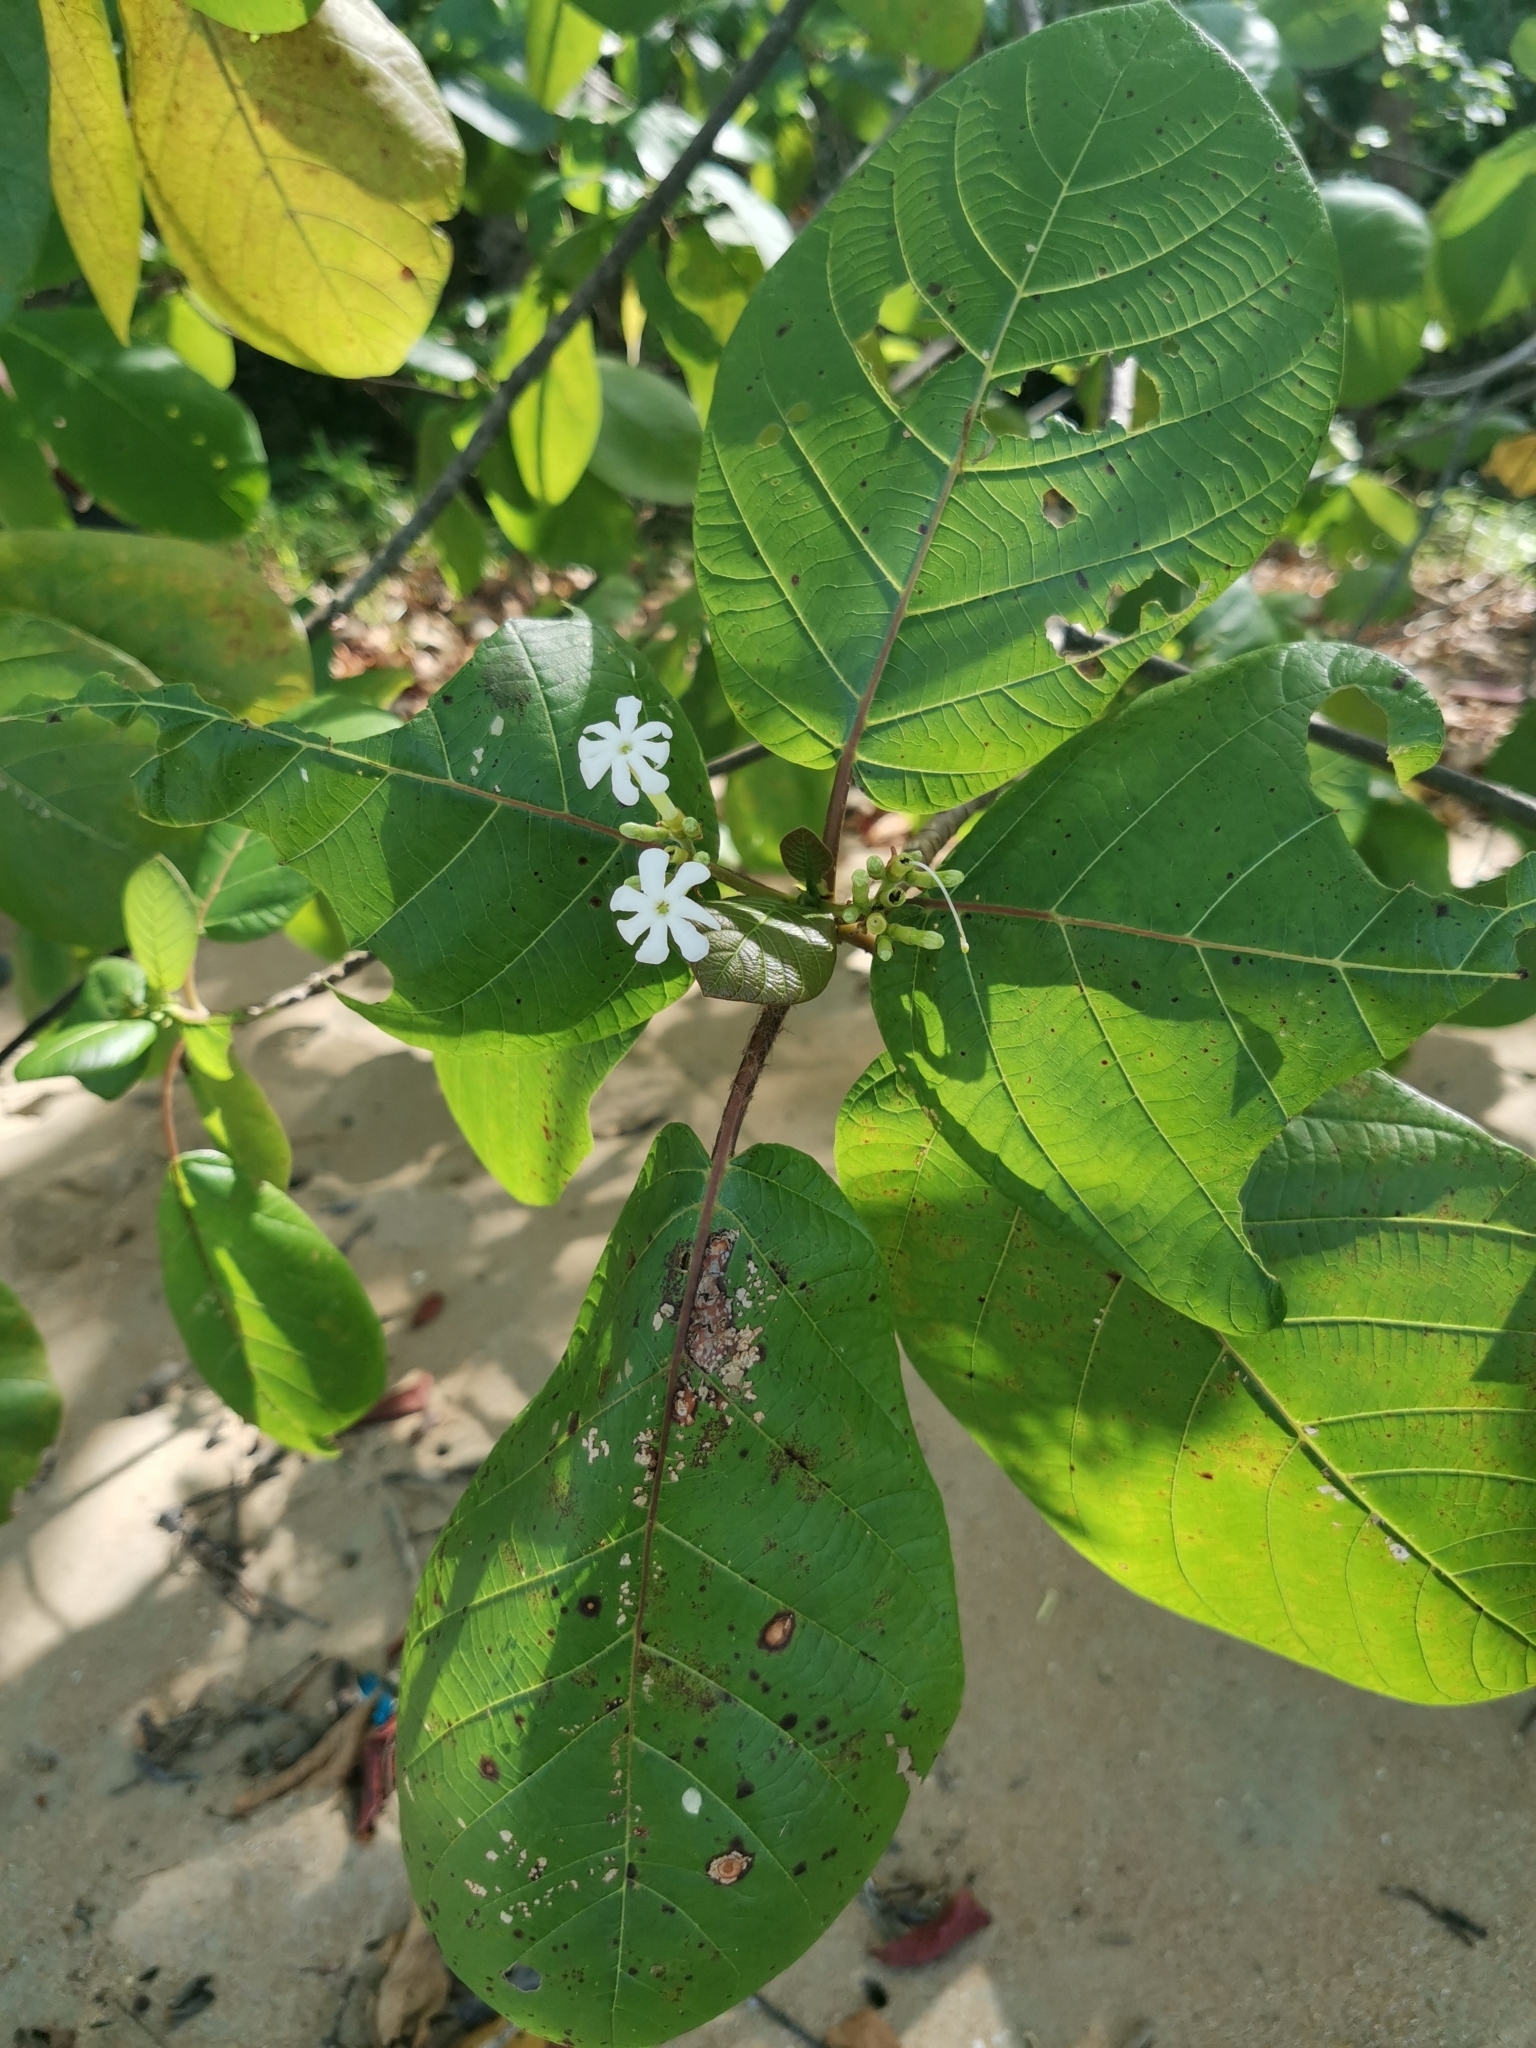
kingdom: Plantae
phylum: Tracheophyta
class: Magnoliopsida
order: Gentianales
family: Rubiaceae
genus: Guettarda
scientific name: Guettarda speciosa
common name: Sea randa
